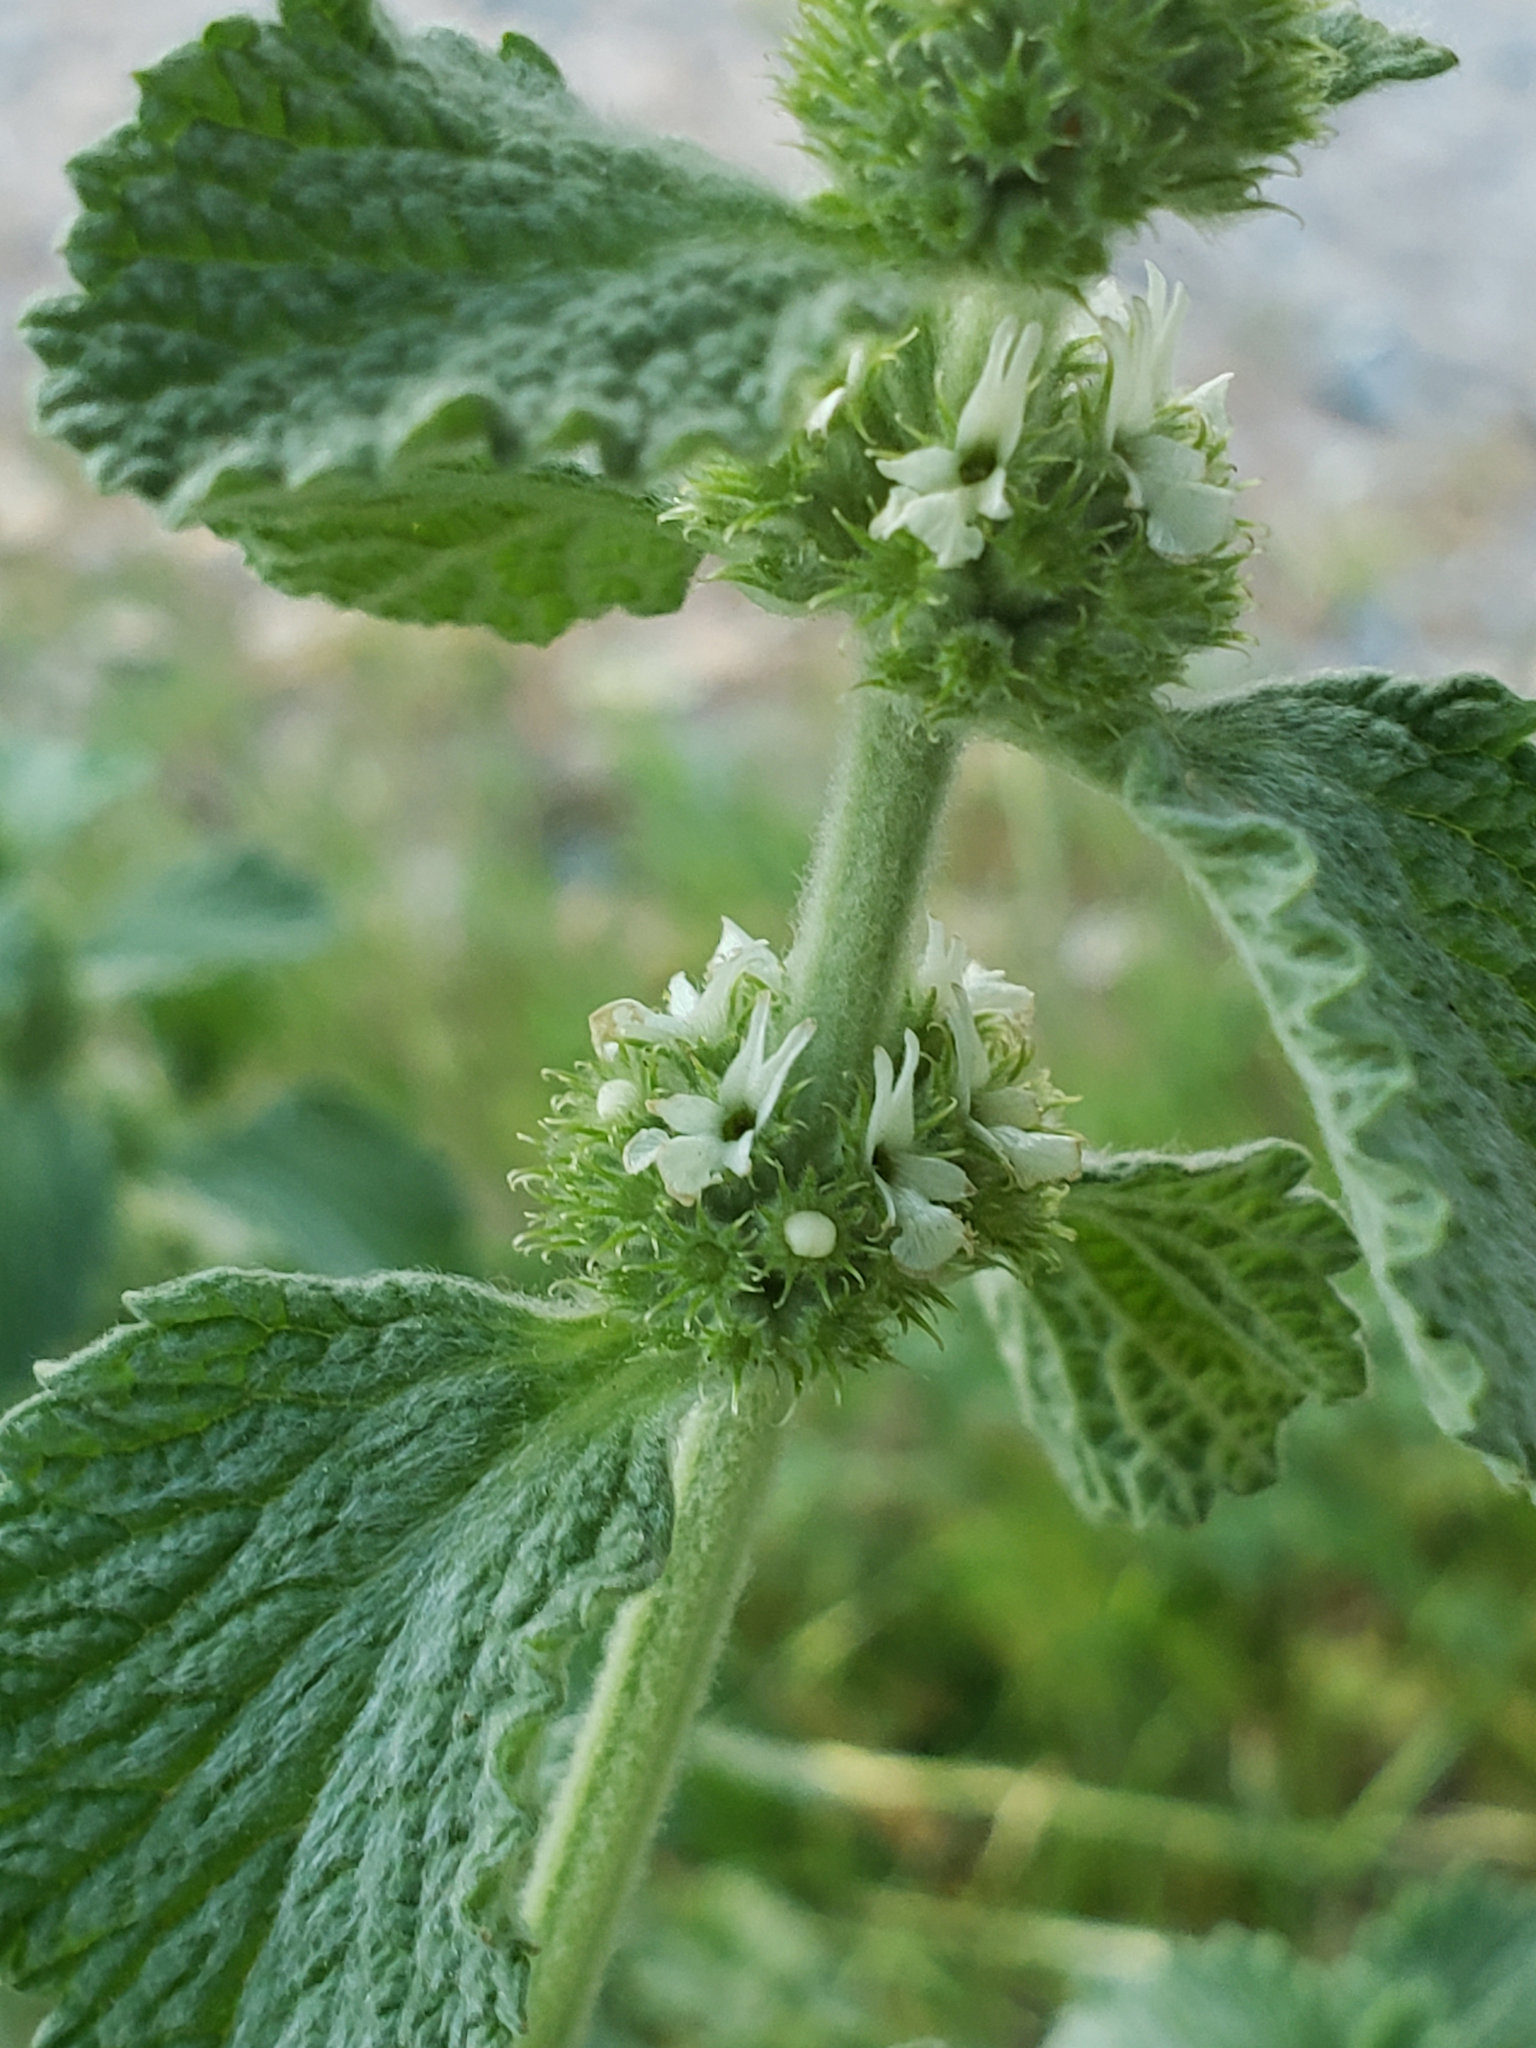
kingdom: Plantae
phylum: Tracheophyta
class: Magnoliopsida
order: Lamiales
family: Lamiaceae
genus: Marrubium
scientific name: Marrubium vulgare
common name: Horehound
